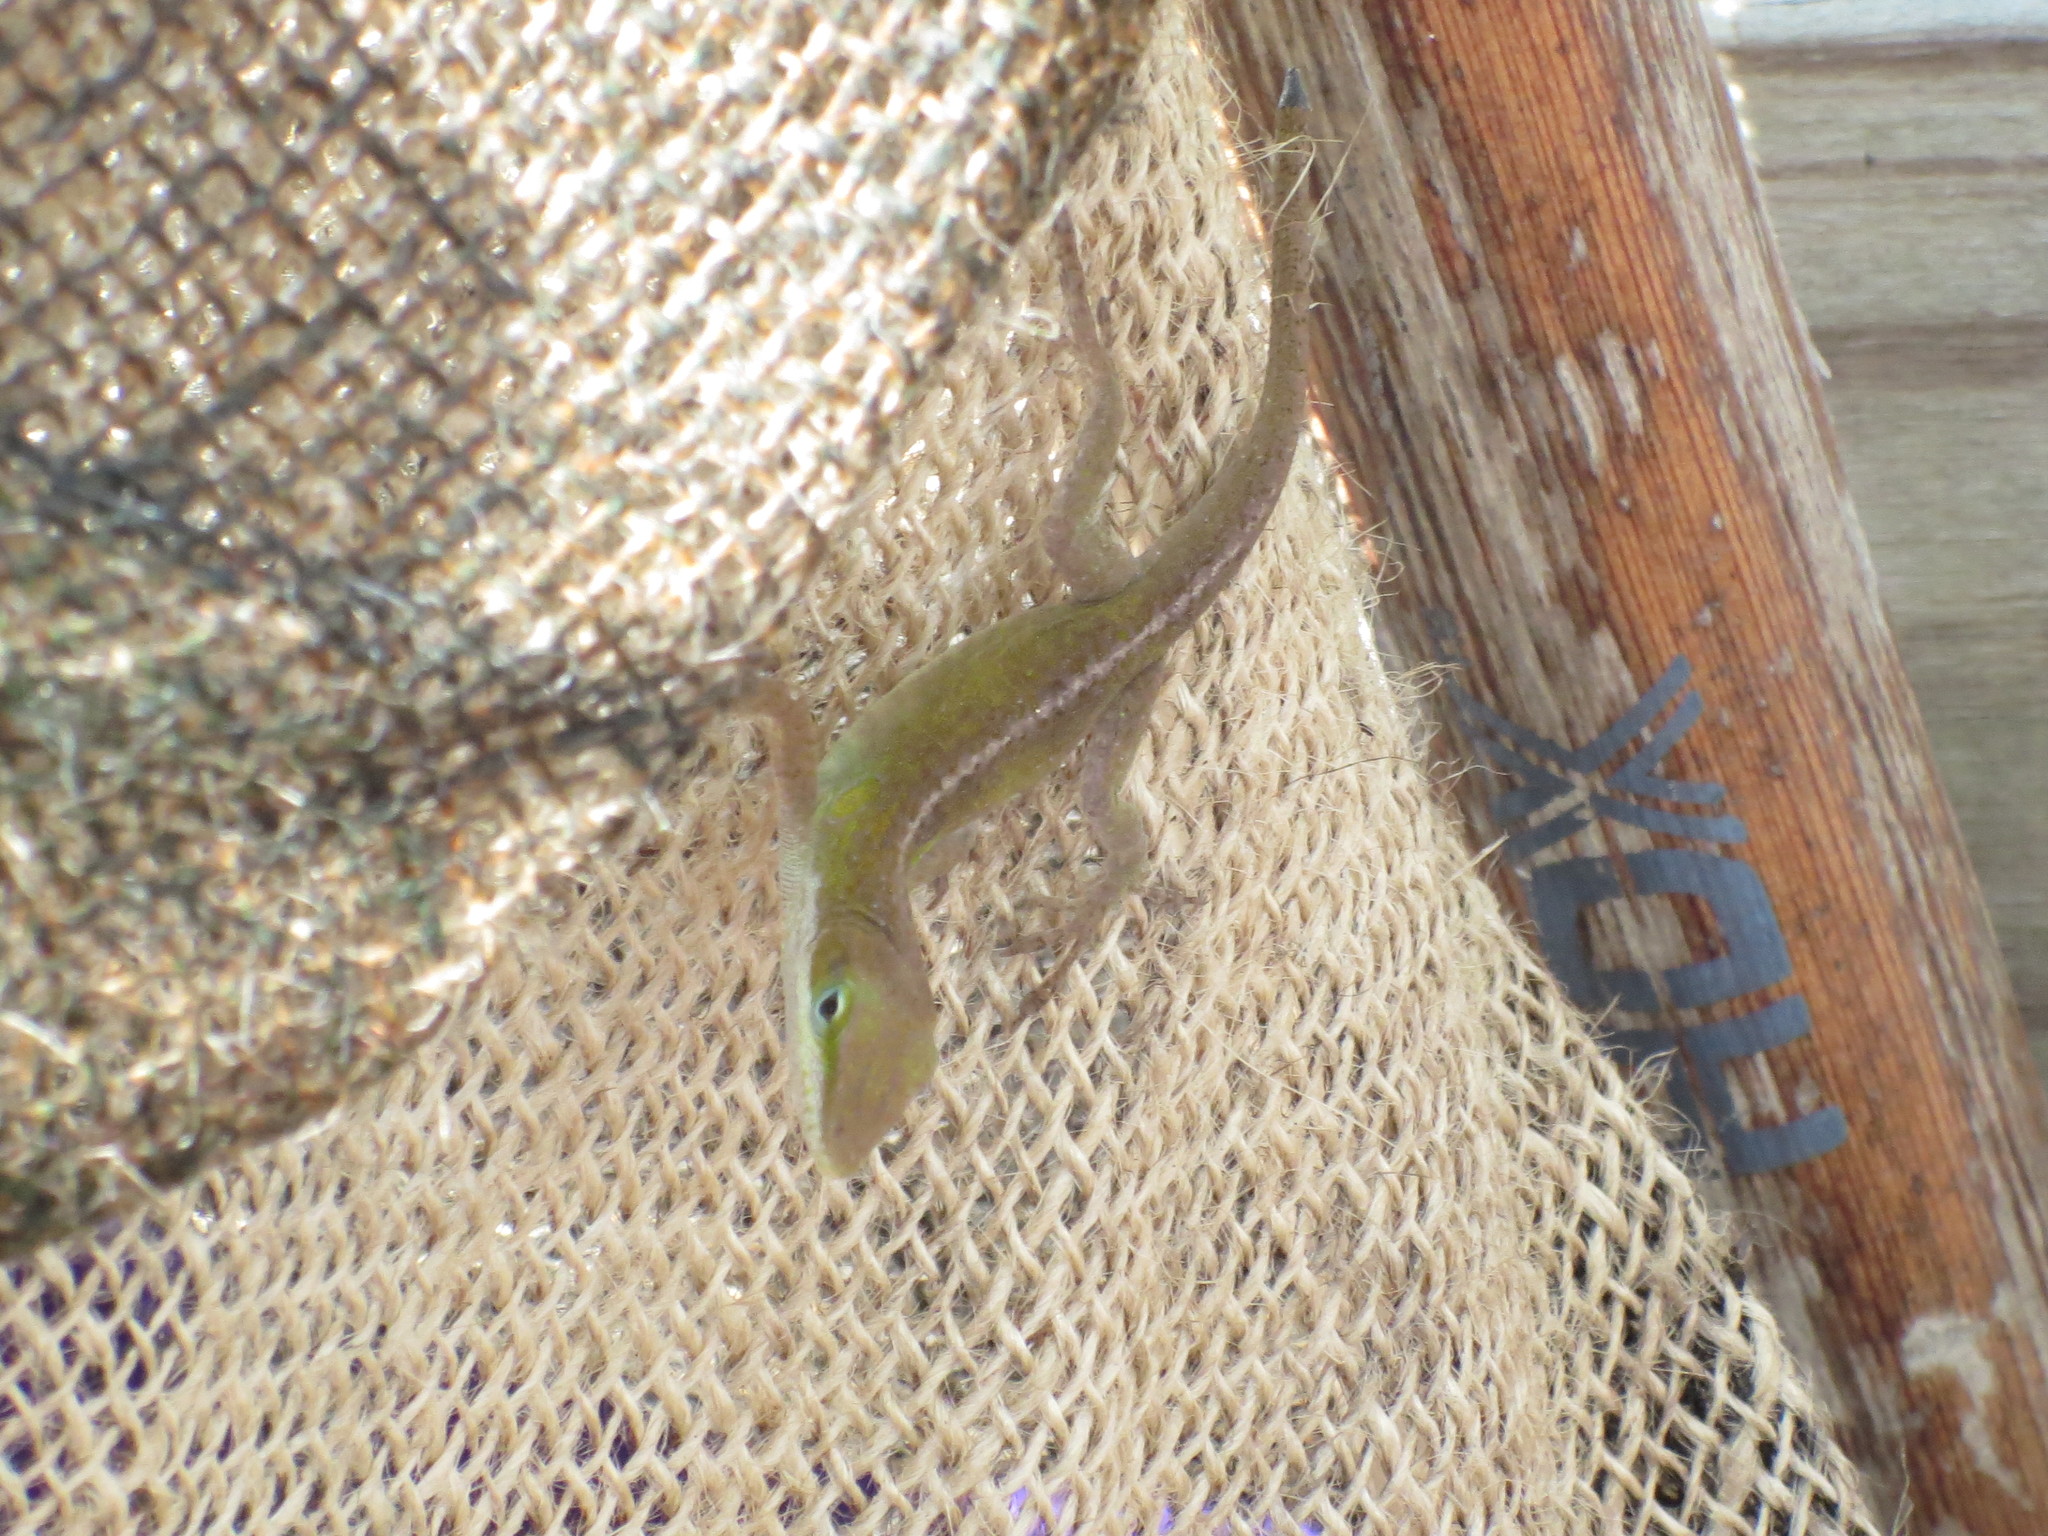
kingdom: Animalia
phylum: Chordata
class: Squamata
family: Dactyloidae
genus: Anolis
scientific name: Anolis carolinensis
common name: Green anole
